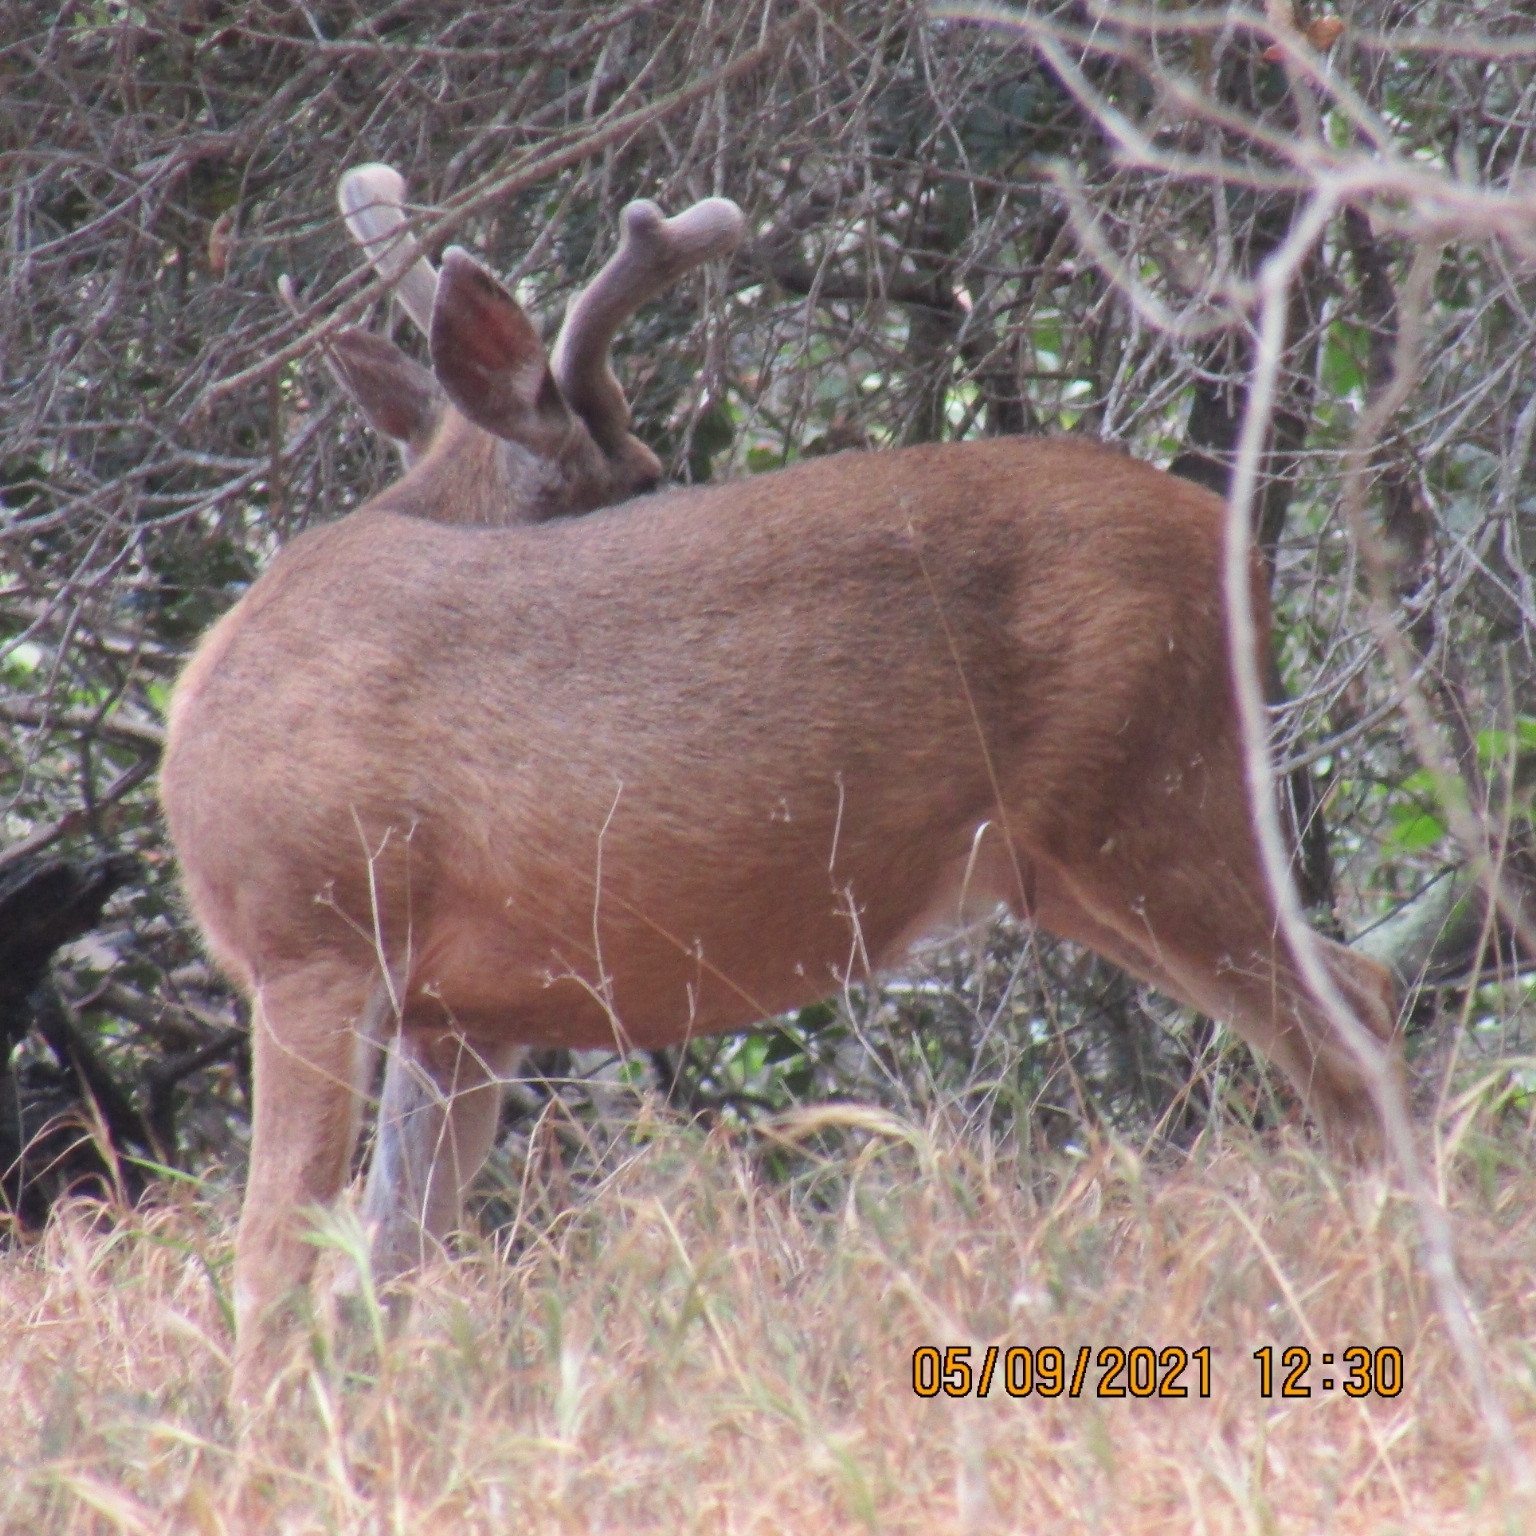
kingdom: Animalia
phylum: Chordata
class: Mammalia
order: Artiodactyla
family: Cervidae
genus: Odocoileus
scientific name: Odocoileus hemionus
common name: Mule deer
